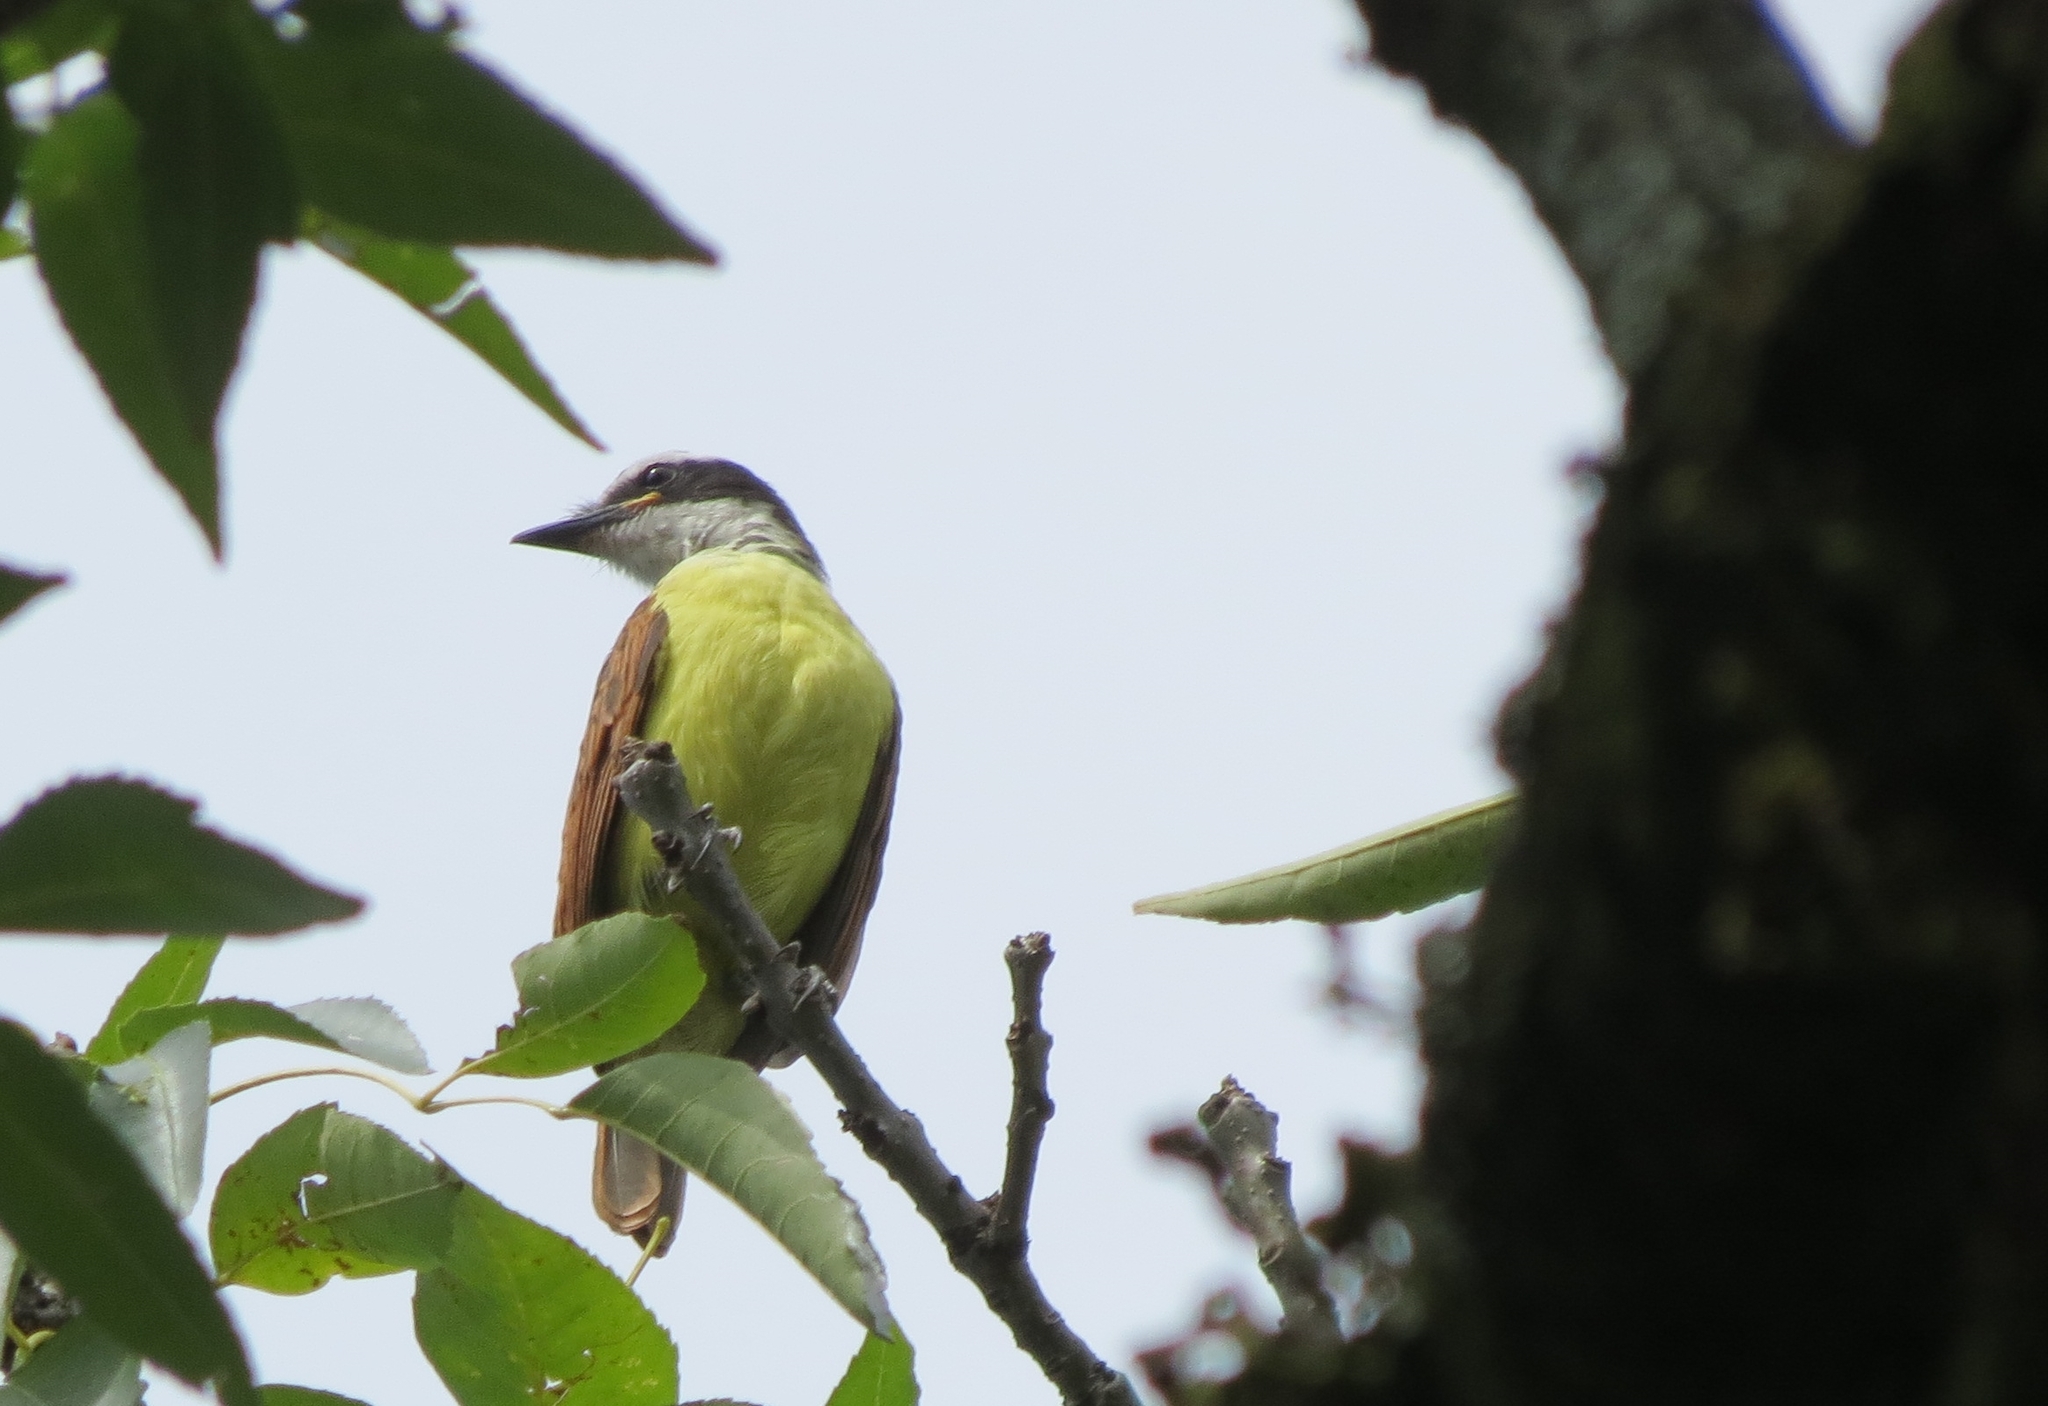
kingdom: Animalia
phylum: Chordata
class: Aves
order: Passeriformes
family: Tyrannidae
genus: Pitangus
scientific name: Pitangus sulphuratus
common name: Great kiskadee
